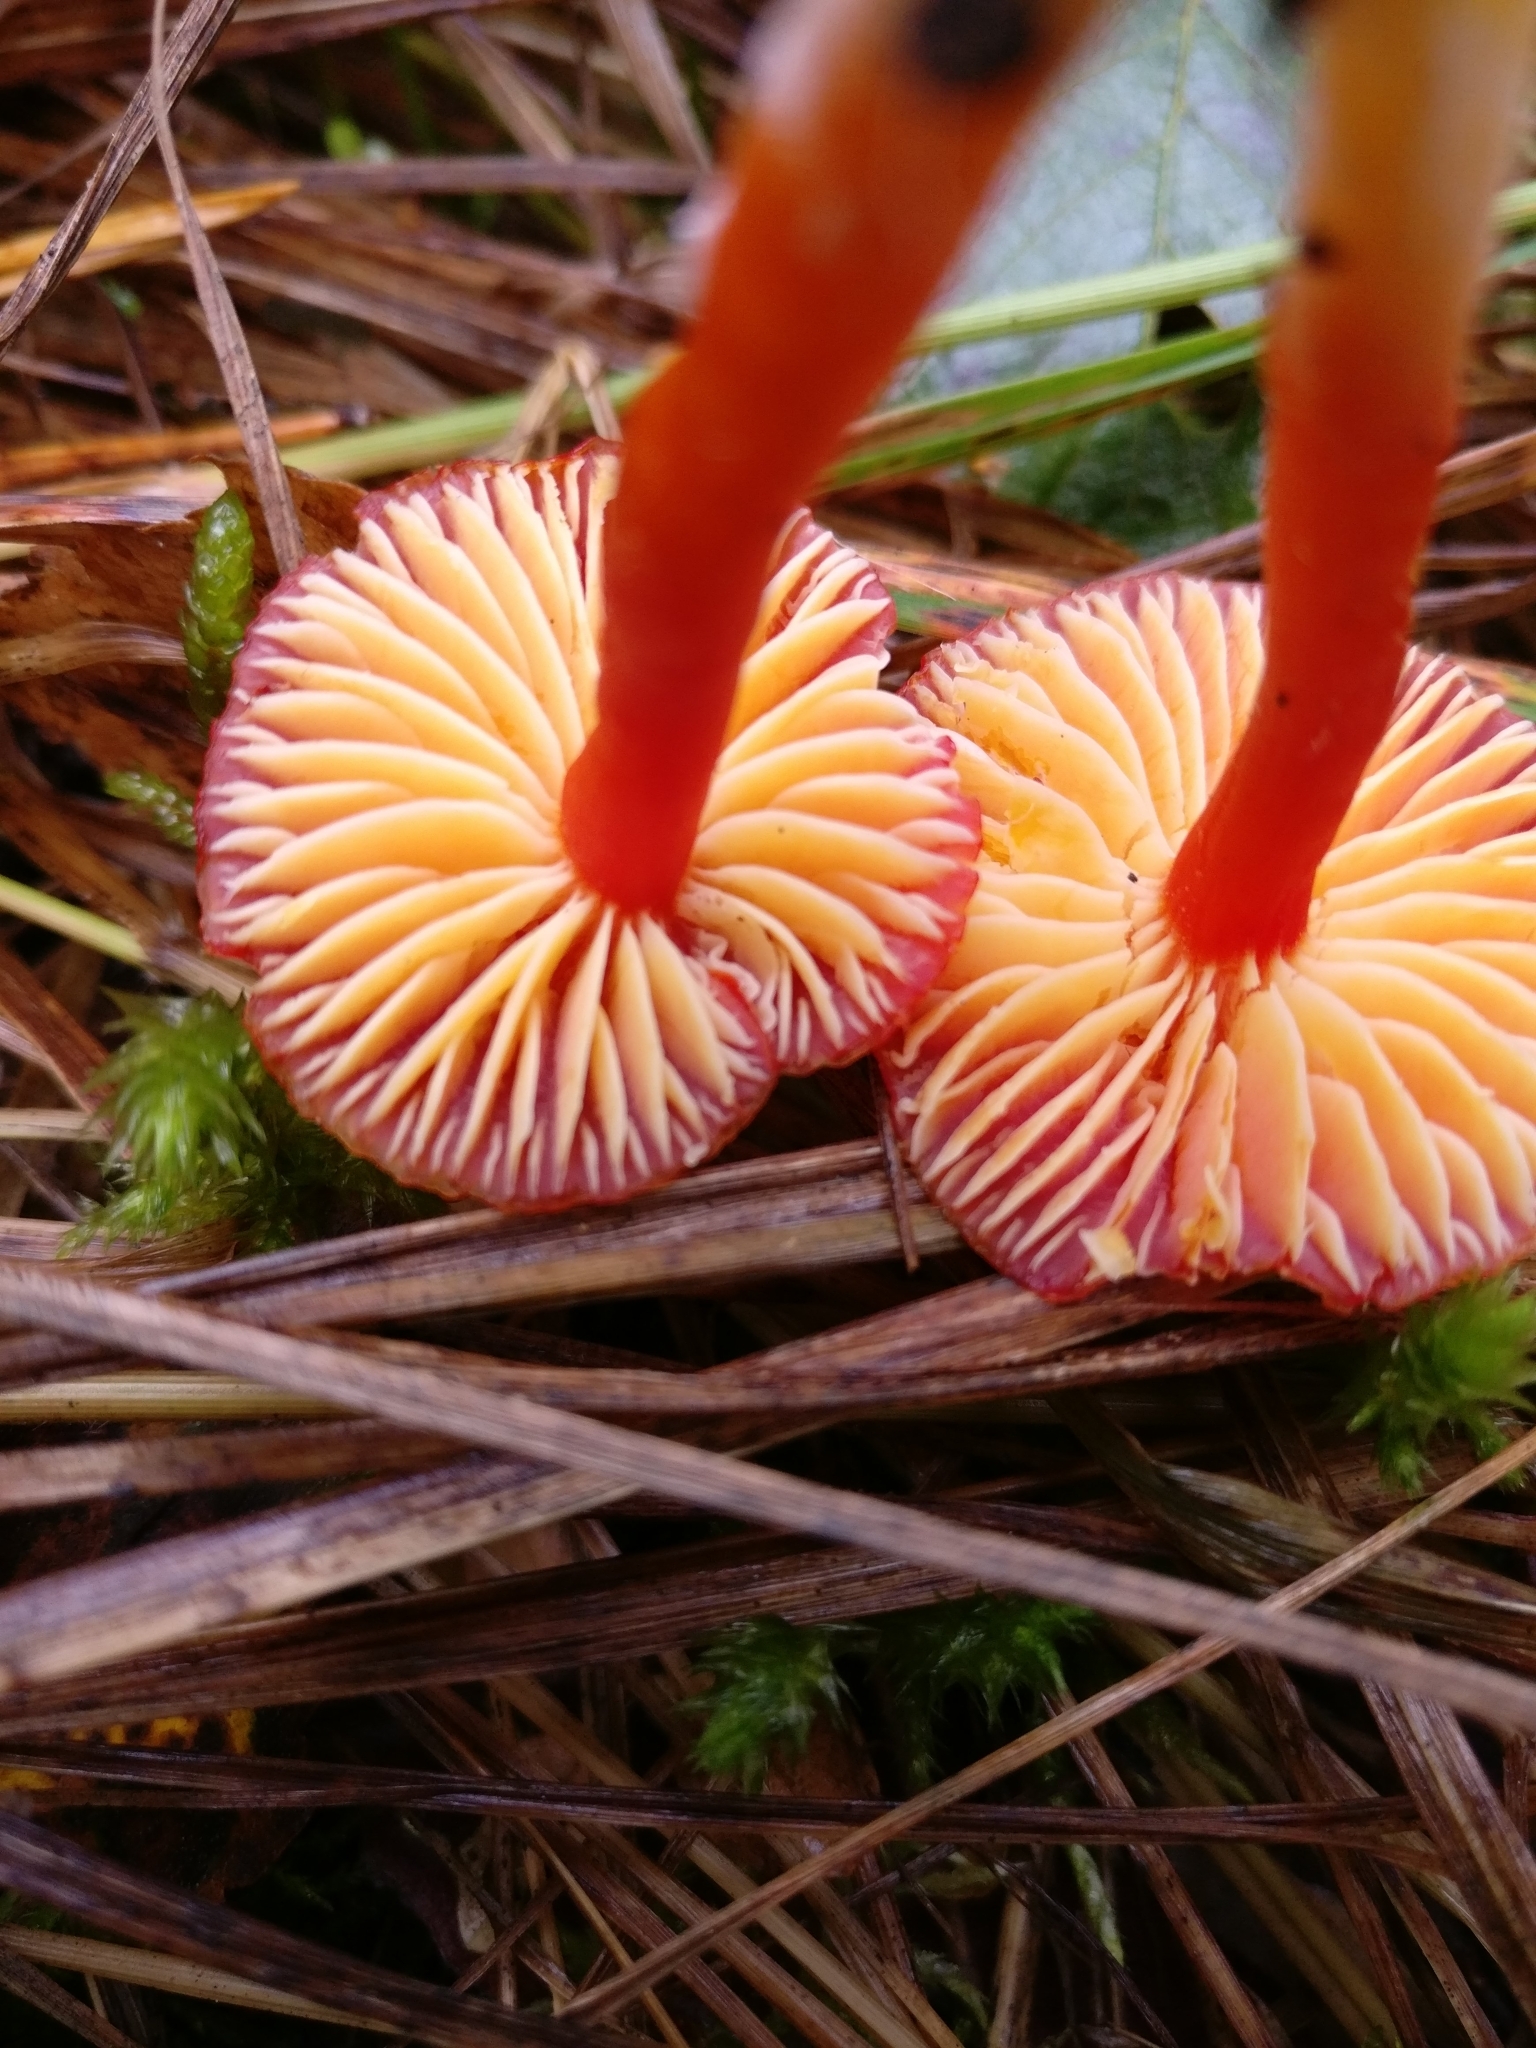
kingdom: Fungi
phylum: Basidiomycota
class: Agaricomycetes
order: Agaricales
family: Hygrophoraceae
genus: Hygrocybe
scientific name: Hygrocybe coccinea
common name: Scarlet hood
